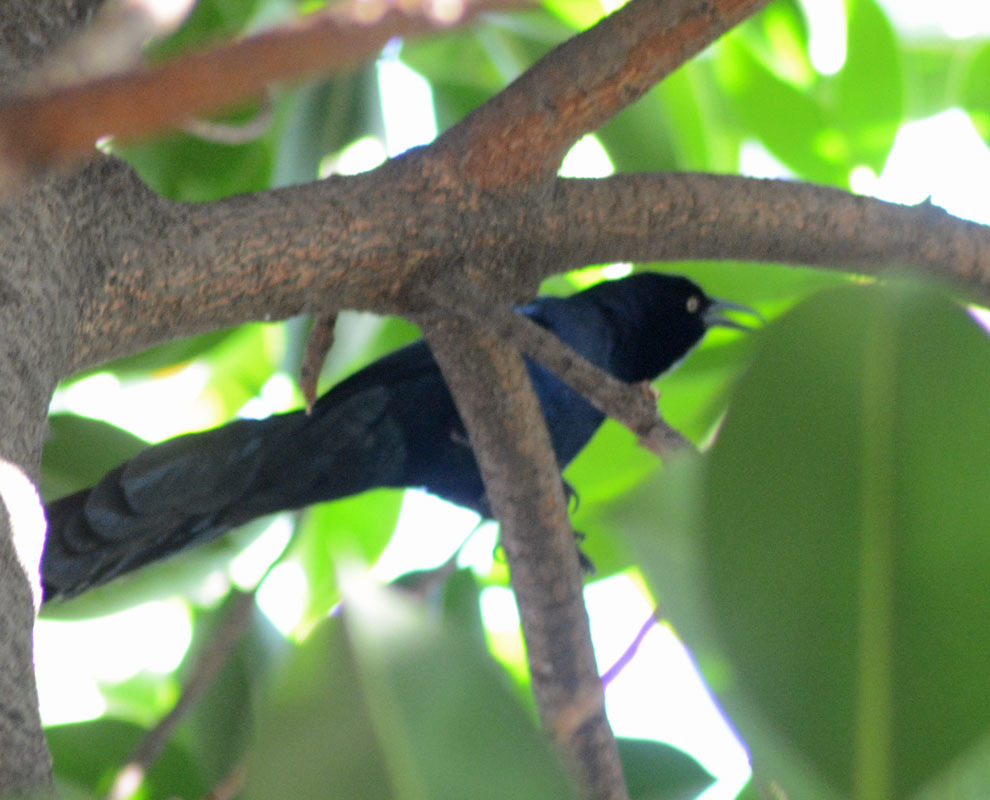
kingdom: Animalia
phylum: Chordata
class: Aves
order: Passeriformes
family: Icteridae
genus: Quiscalus
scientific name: Quiscalus mexicanus
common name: Great-tailed grackle
